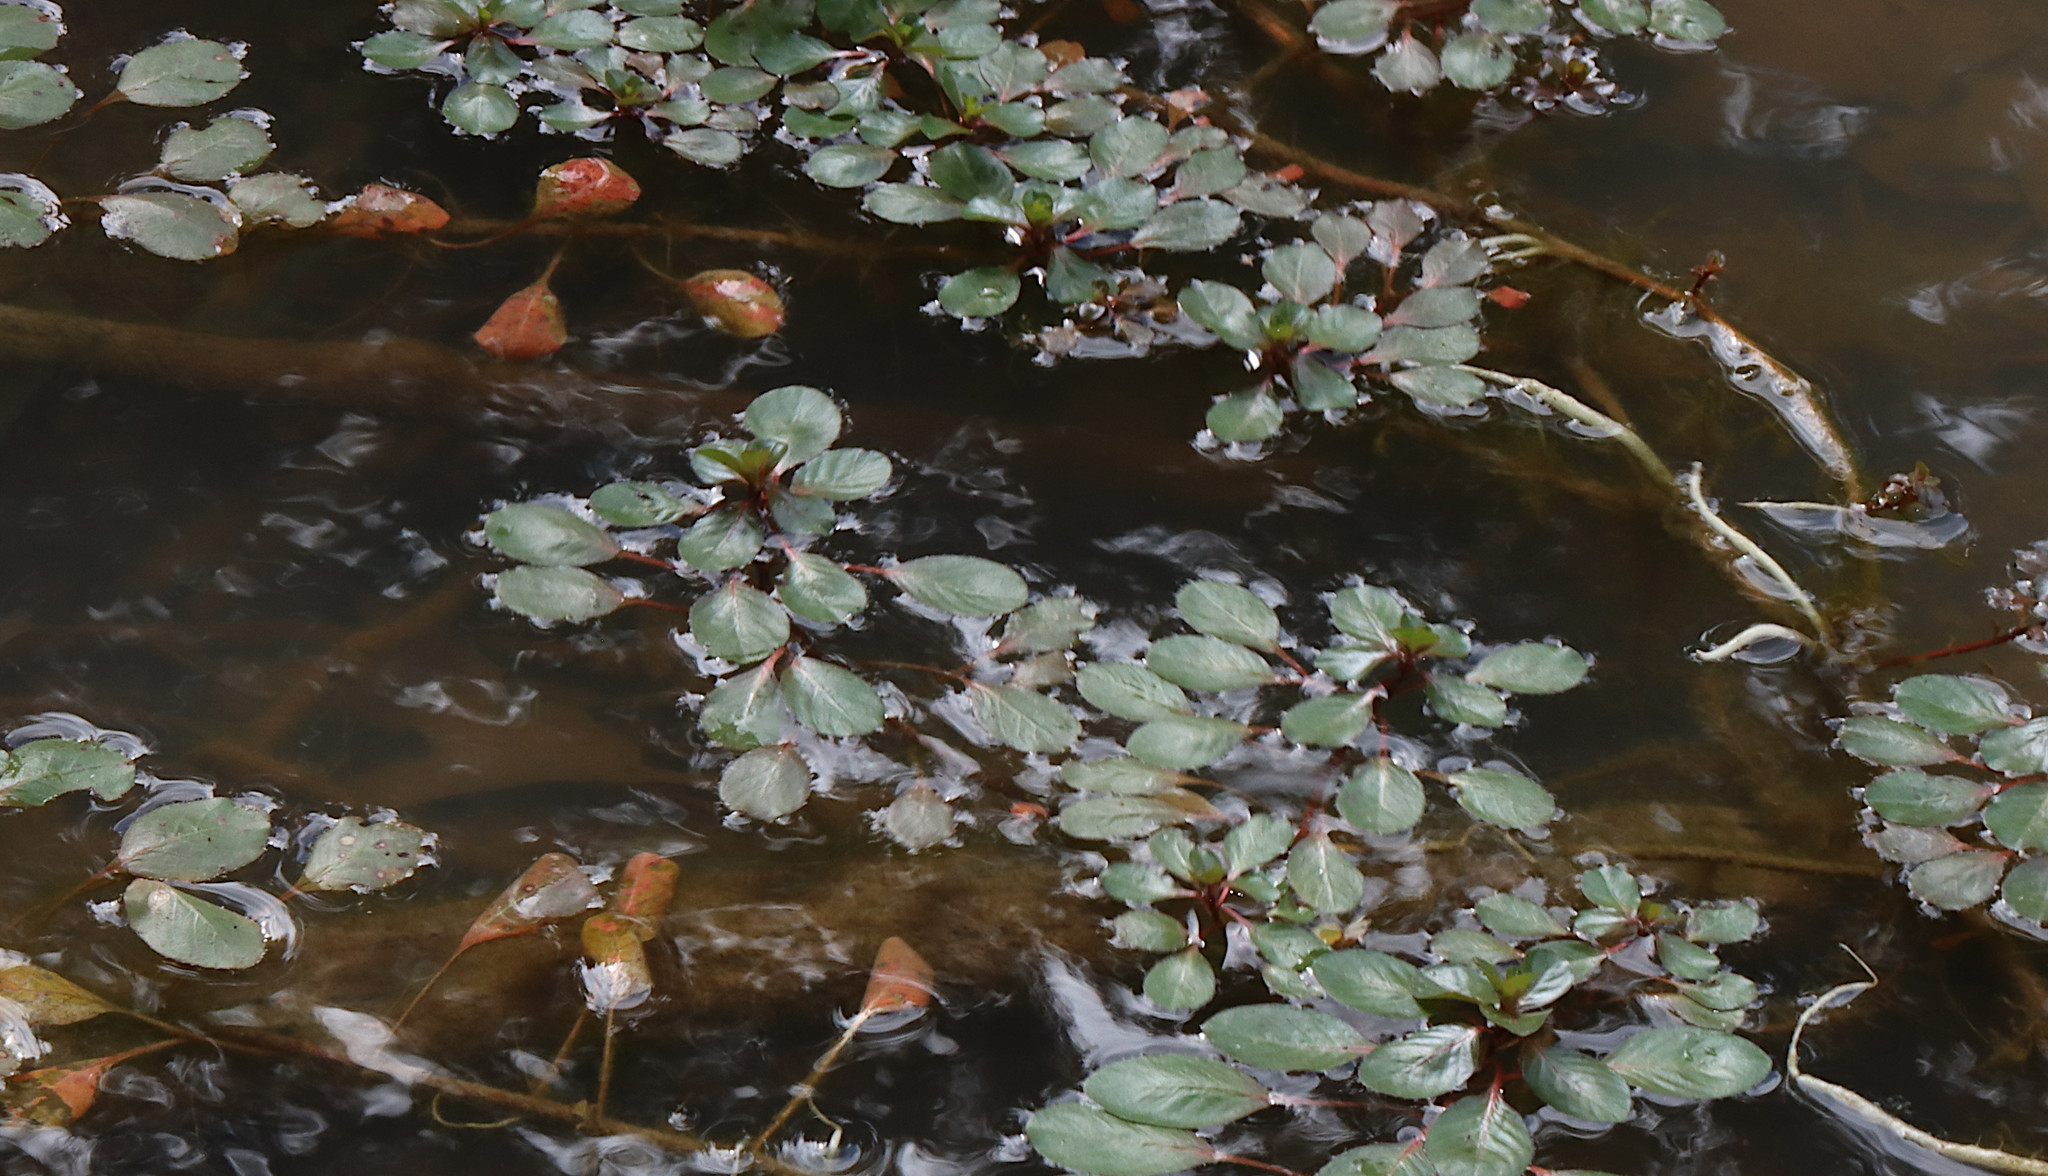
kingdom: Plantae
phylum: Tracheophyta
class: Magnoliopsida
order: Myrtales
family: Onagraceae
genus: Ludwigia
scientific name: Ludwigia peploides
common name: Floating primrose-willow
